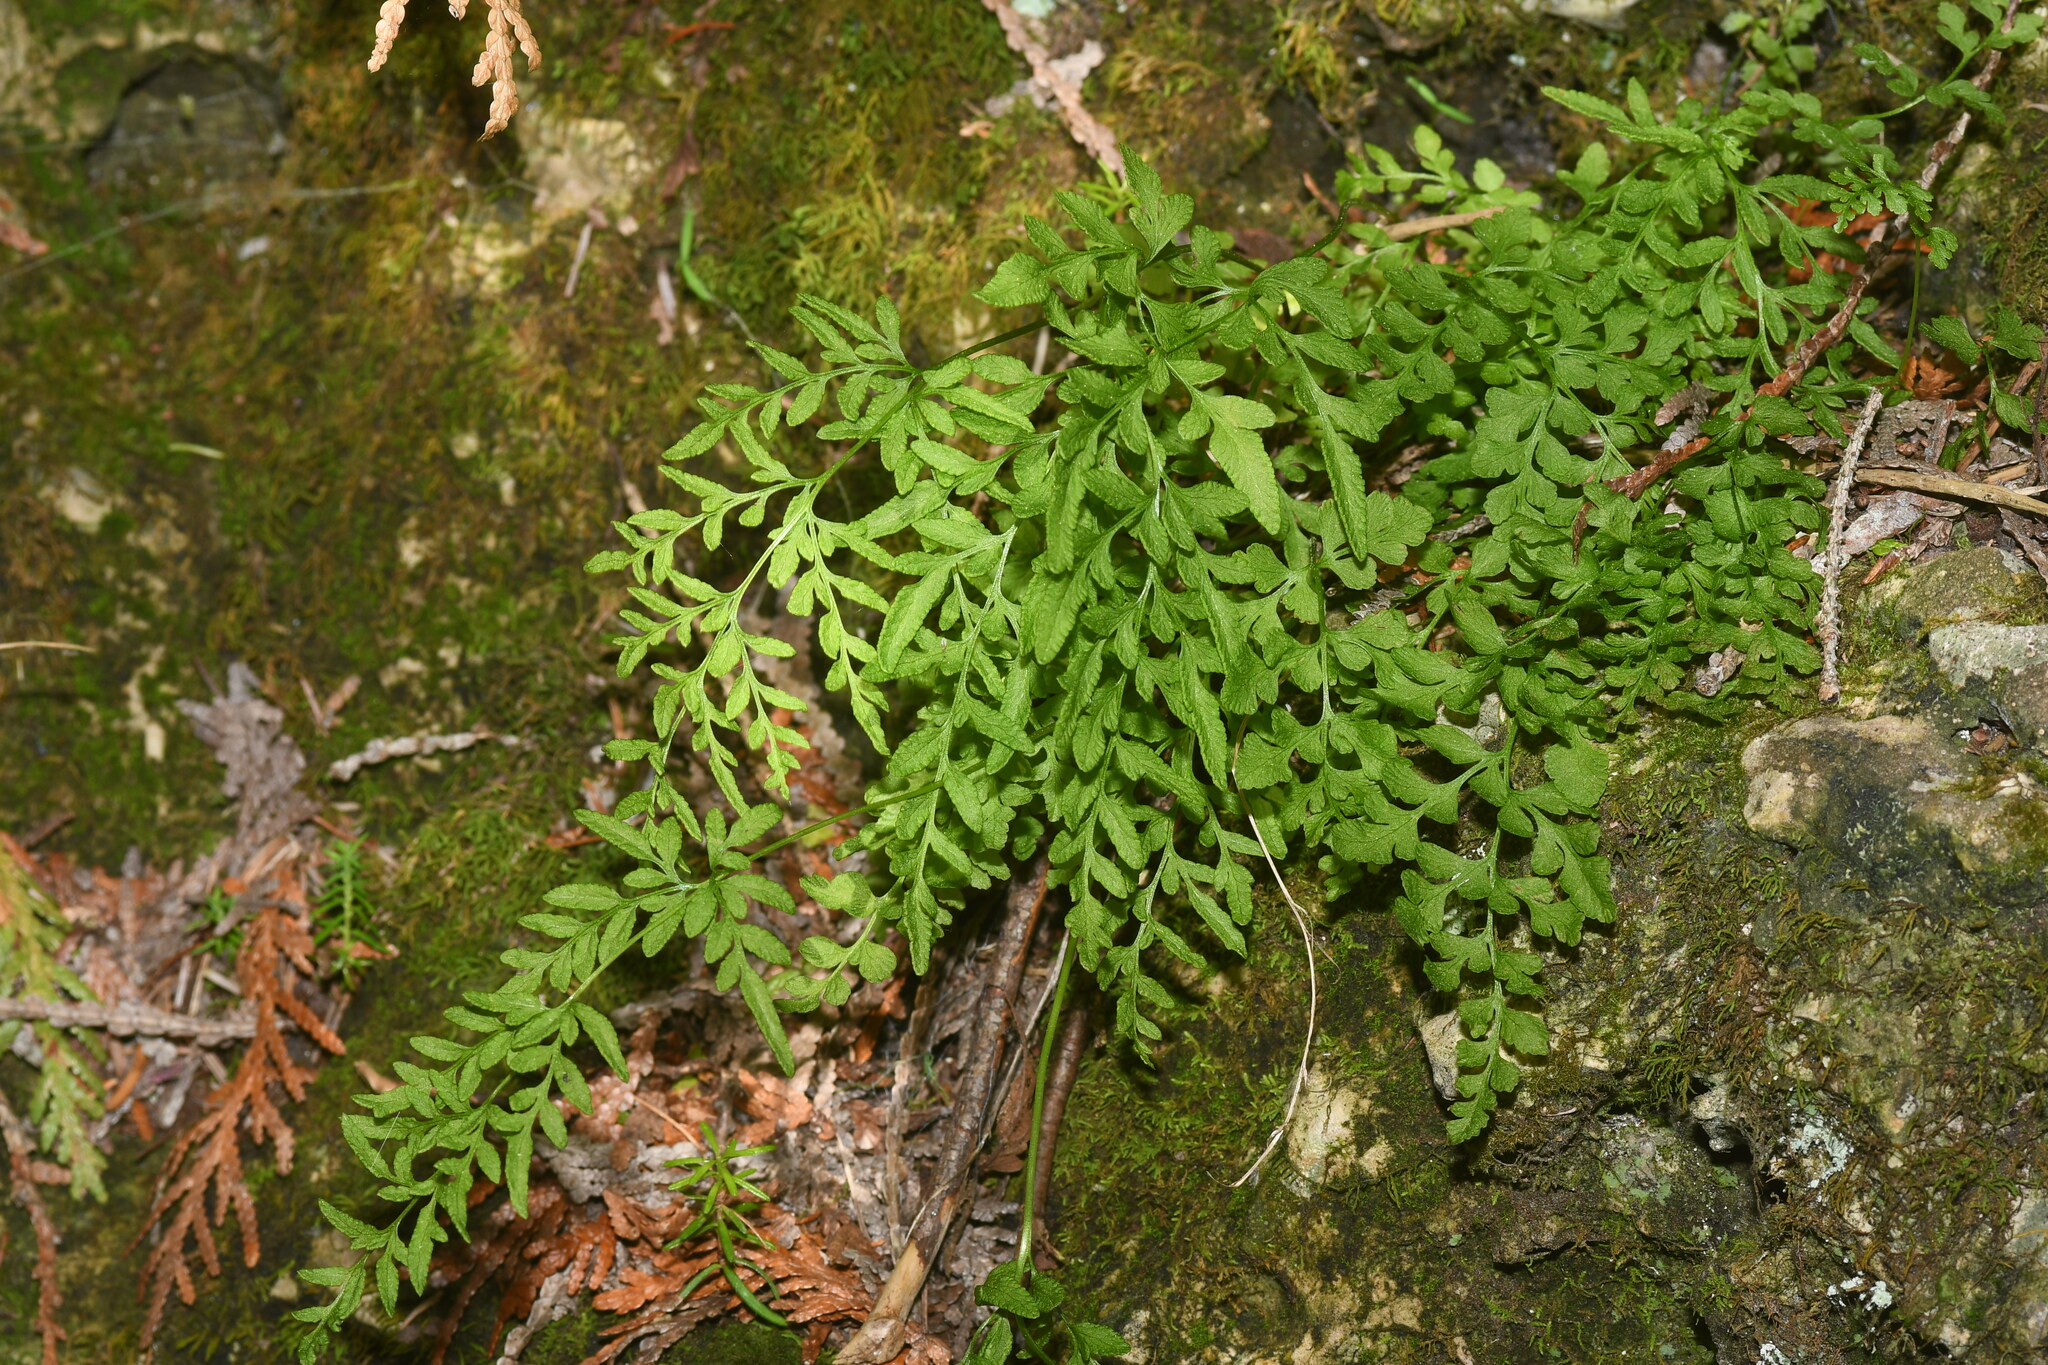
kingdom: Plantae
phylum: Tracheophyta
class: Polypodiopsida
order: Polypodiales
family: Pteridaceae
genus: Cryptogramma
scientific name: Cryptogramma stelleri
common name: Cliff-brake
